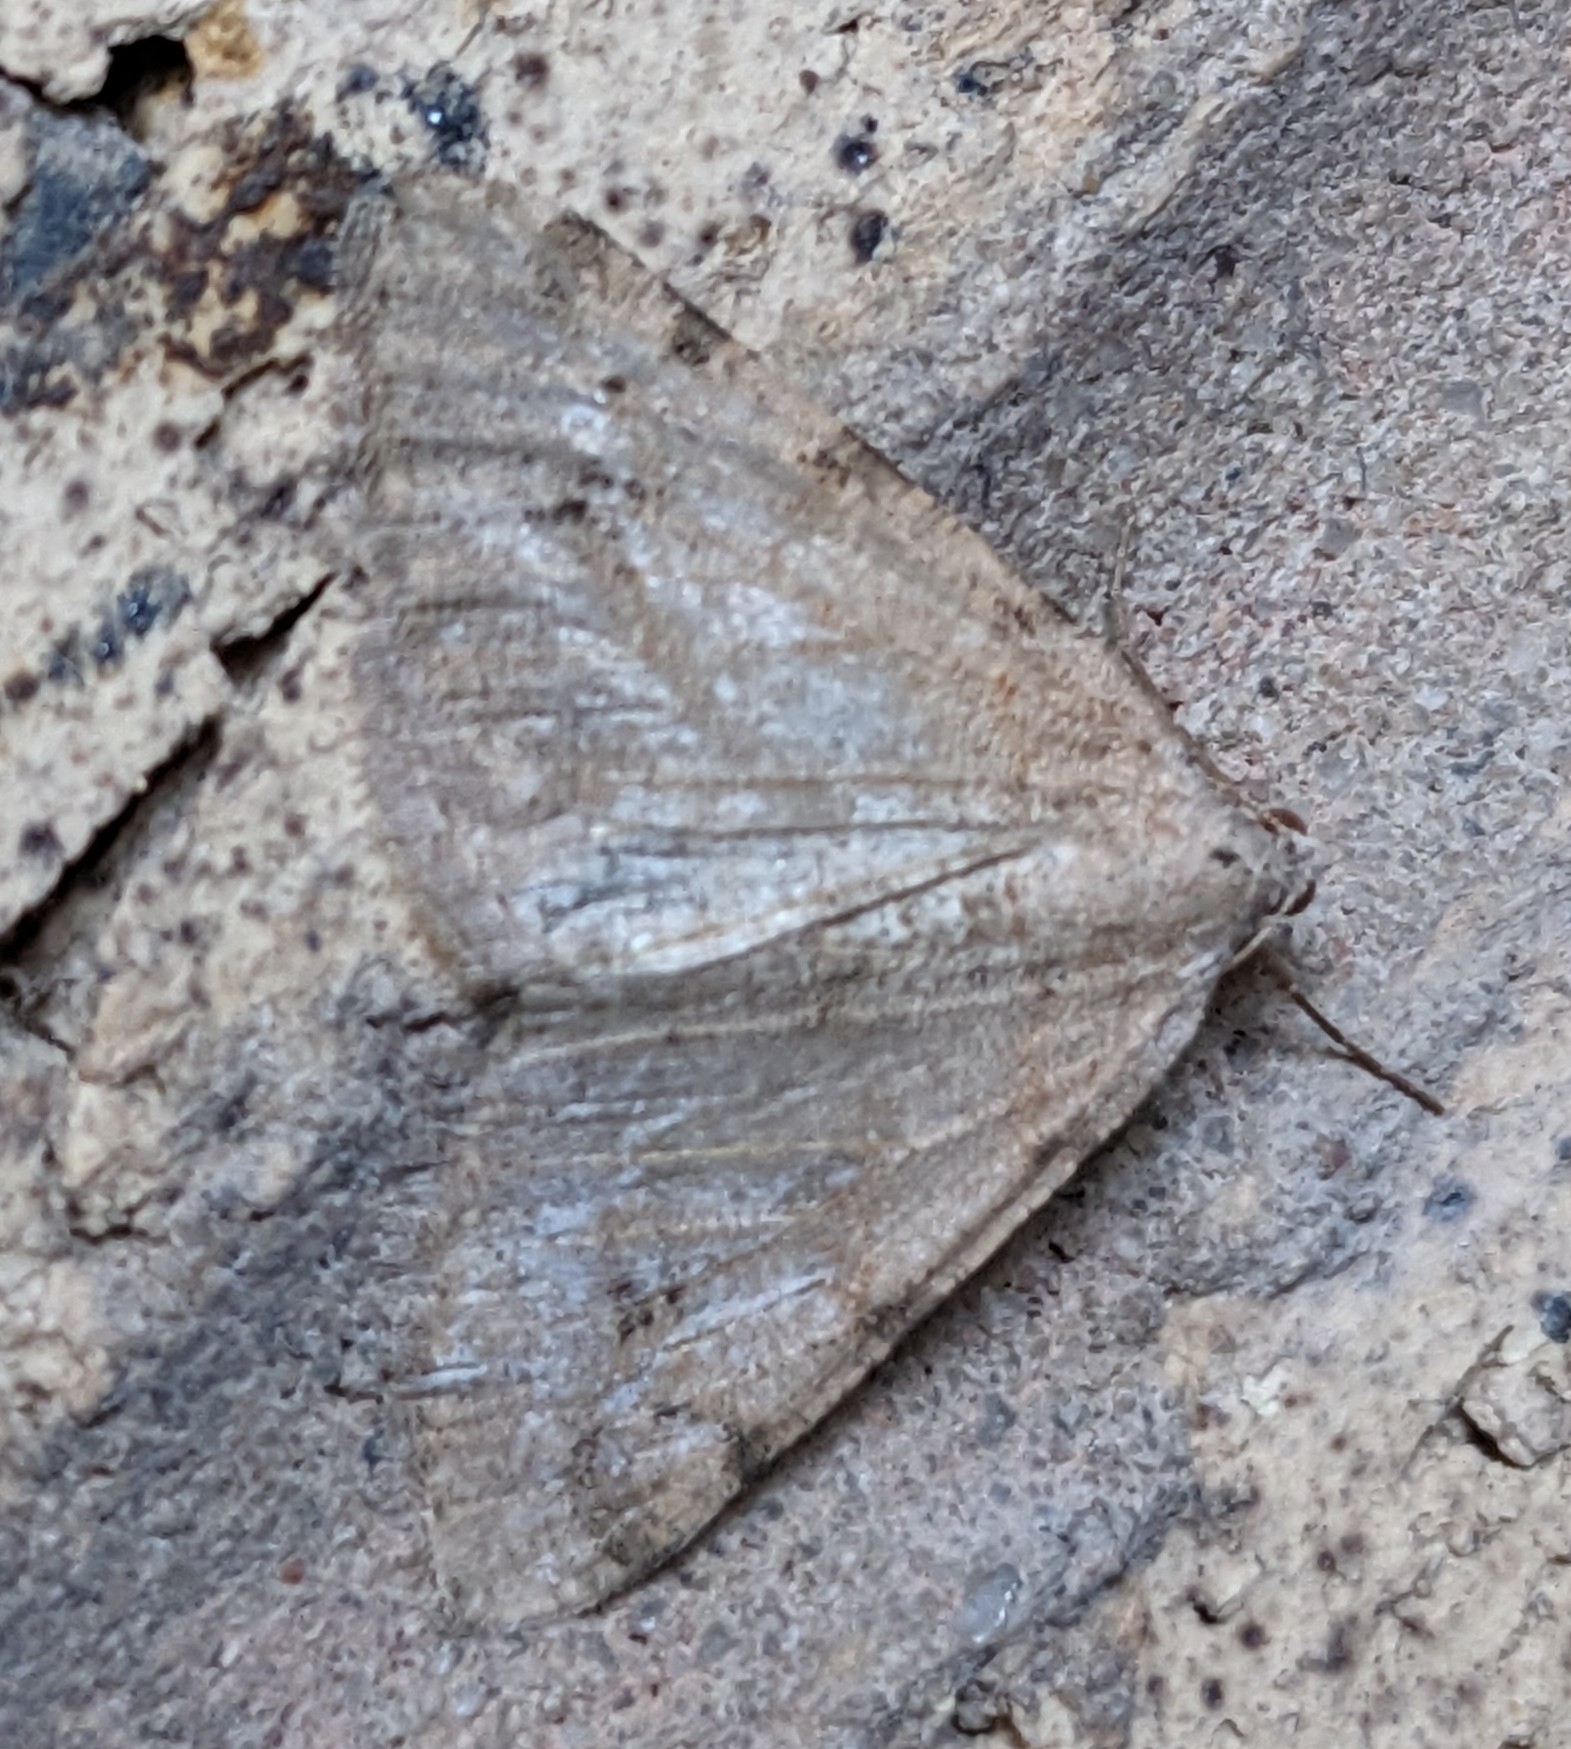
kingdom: Animalia
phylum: Arthropoda
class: Insecta
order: Lepidoptera
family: Geometridae
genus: Digrammia
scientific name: Digrammia colorata
